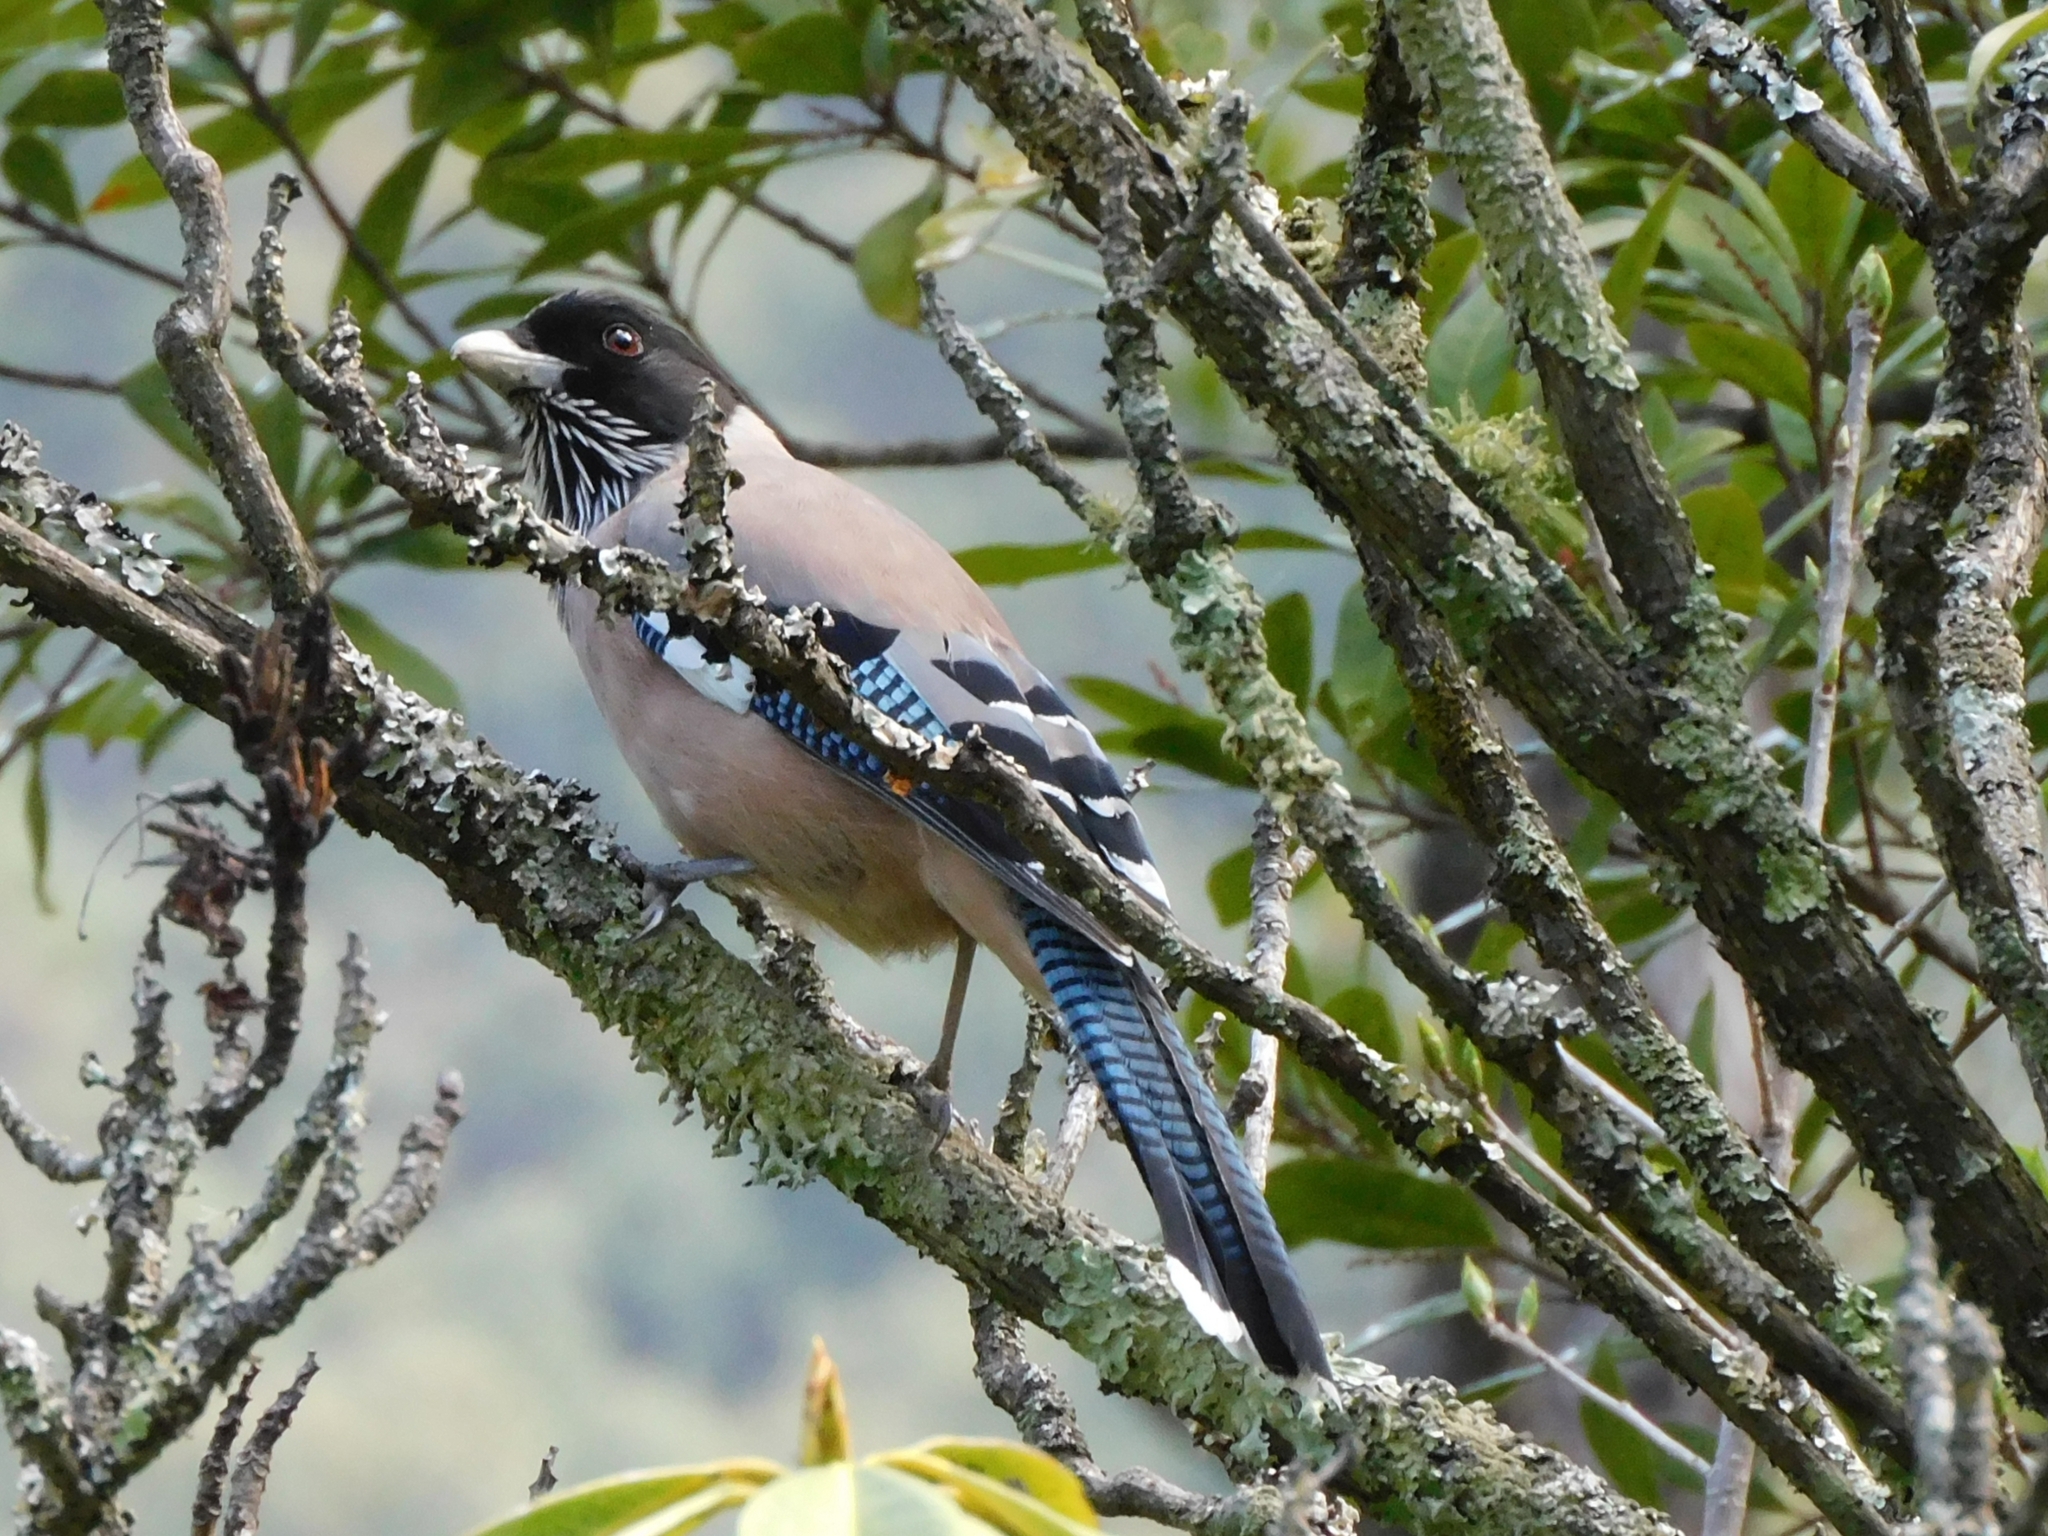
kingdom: Animalia
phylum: Chordata
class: Aves
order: Passeriformes
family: Corvidae
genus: Garrulus
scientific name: Garrulus lanceolatus
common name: Black-headed jay
